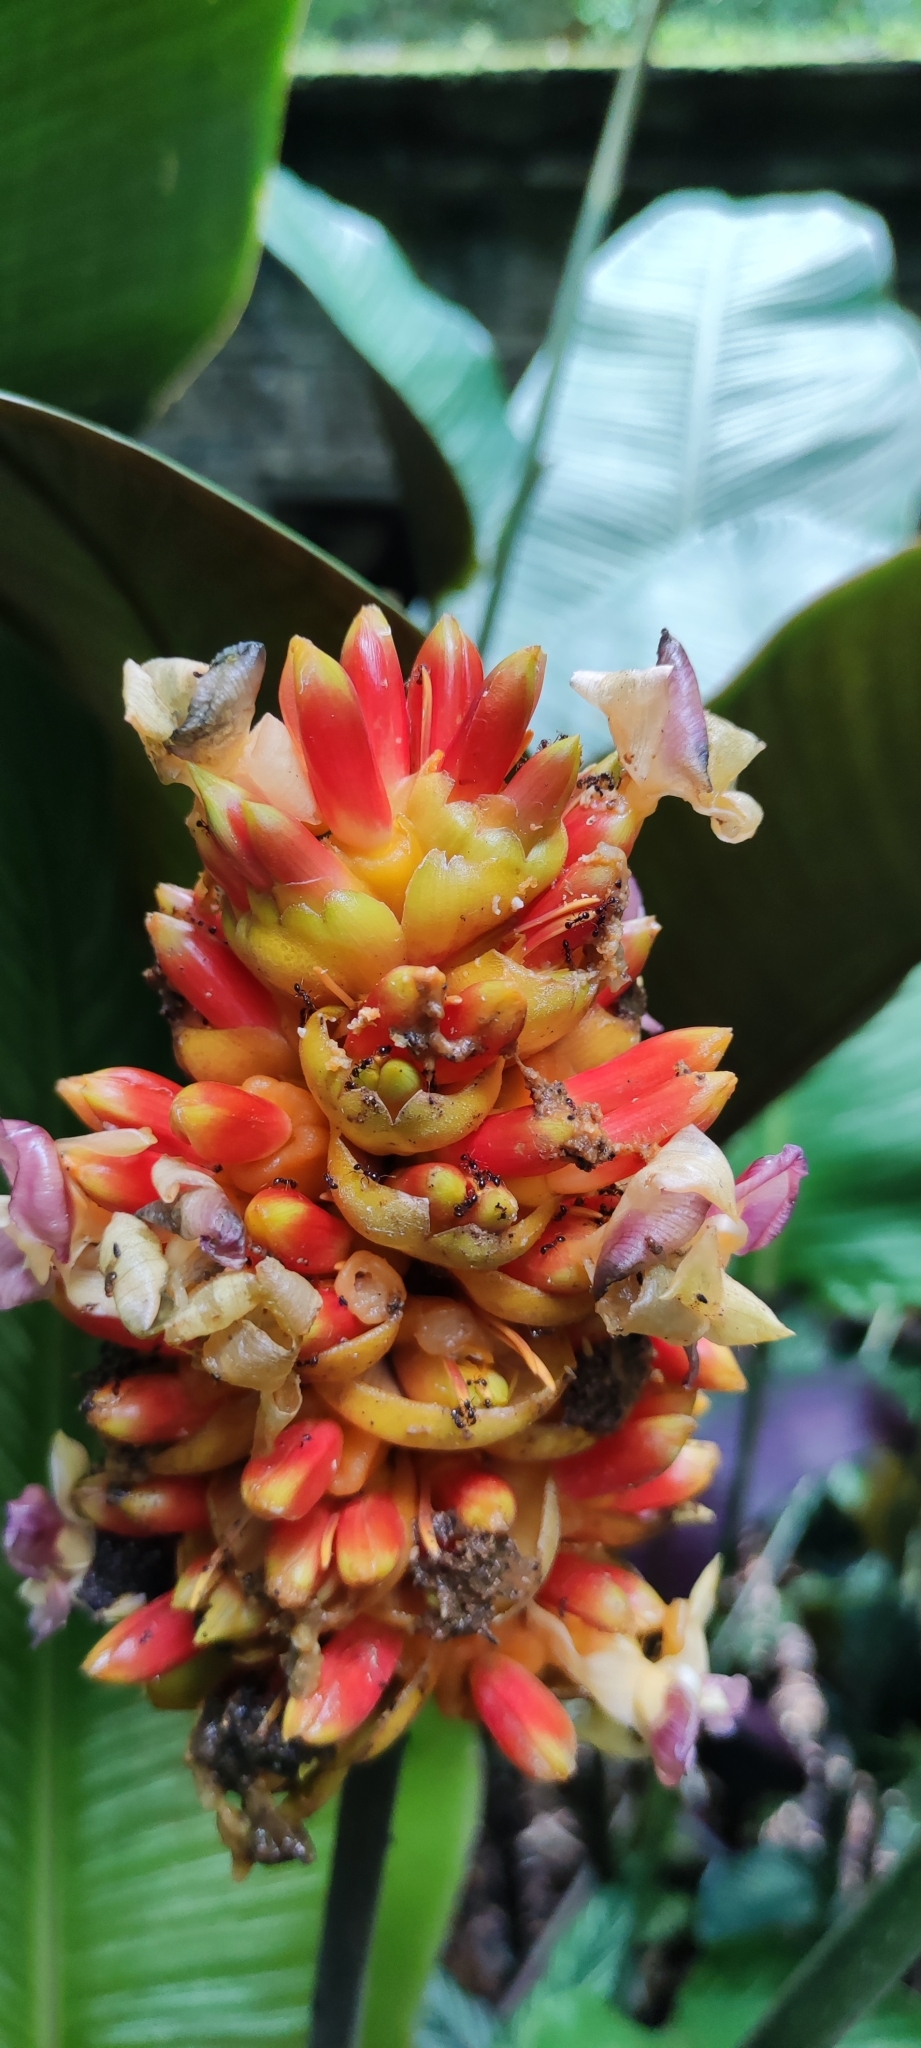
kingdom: Plantae
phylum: Tracheophyta
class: Liliopsida
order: Zingiberales
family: Marantaceae
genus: Goeppertia
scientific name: Goeppertia ornata
